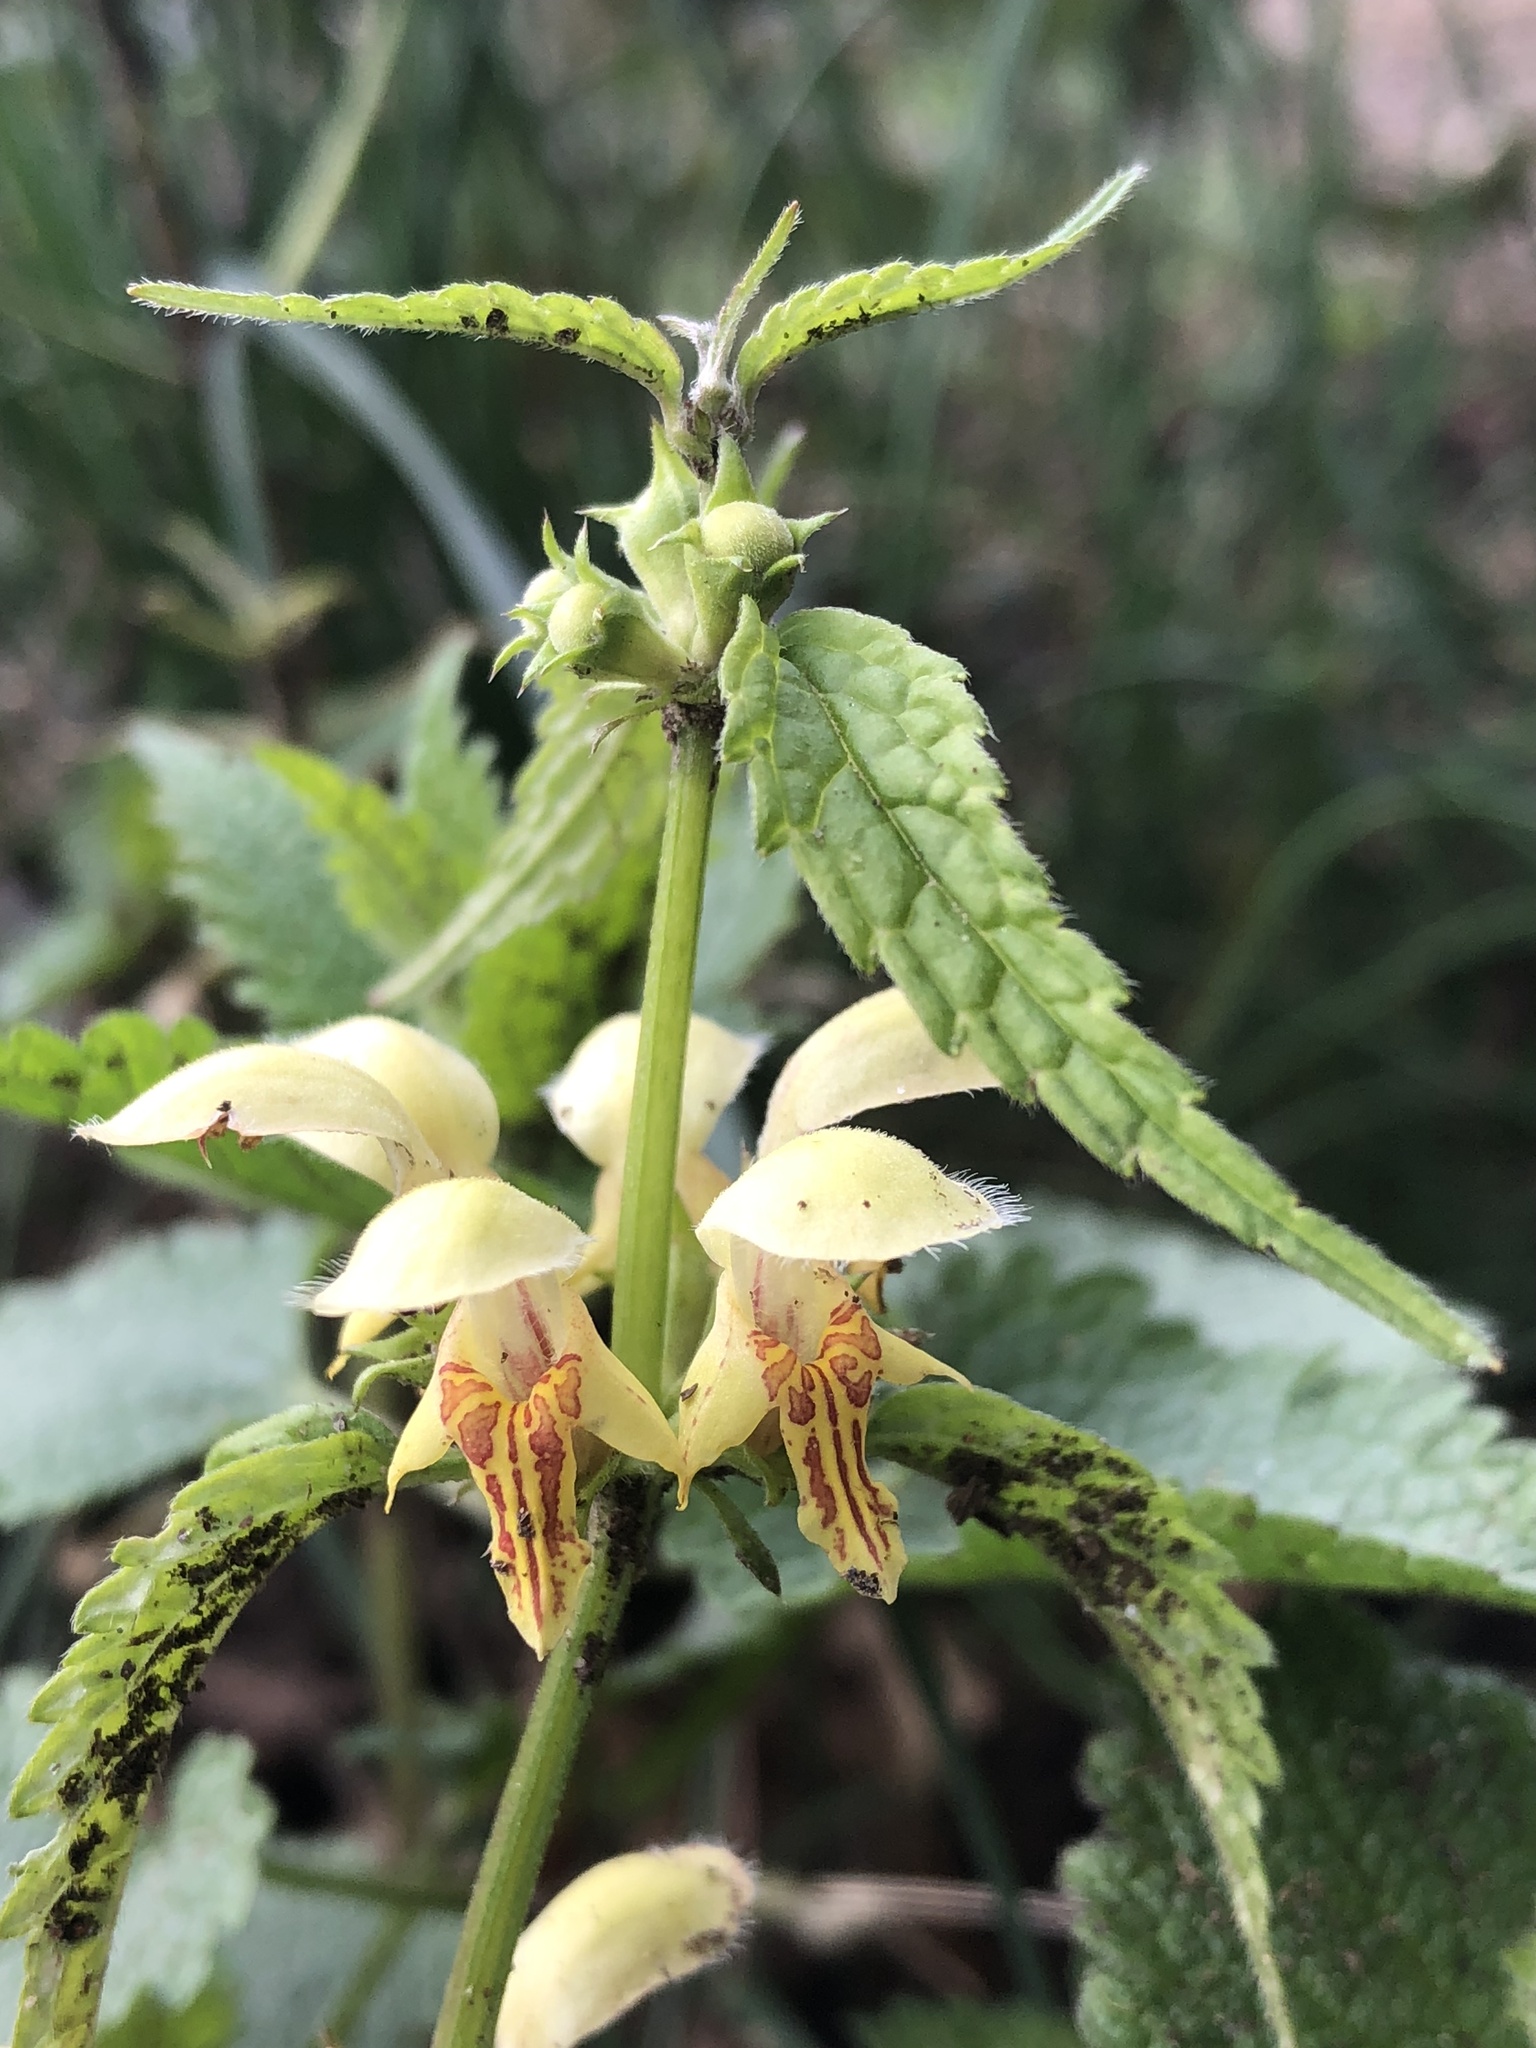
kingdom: Plantae
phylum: Tracheophyta
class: Magnoliopsida
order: Lamiales
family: Lamiaceae
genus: Lamium
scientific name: Lamium galeobdolon
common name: Yellow archangel
